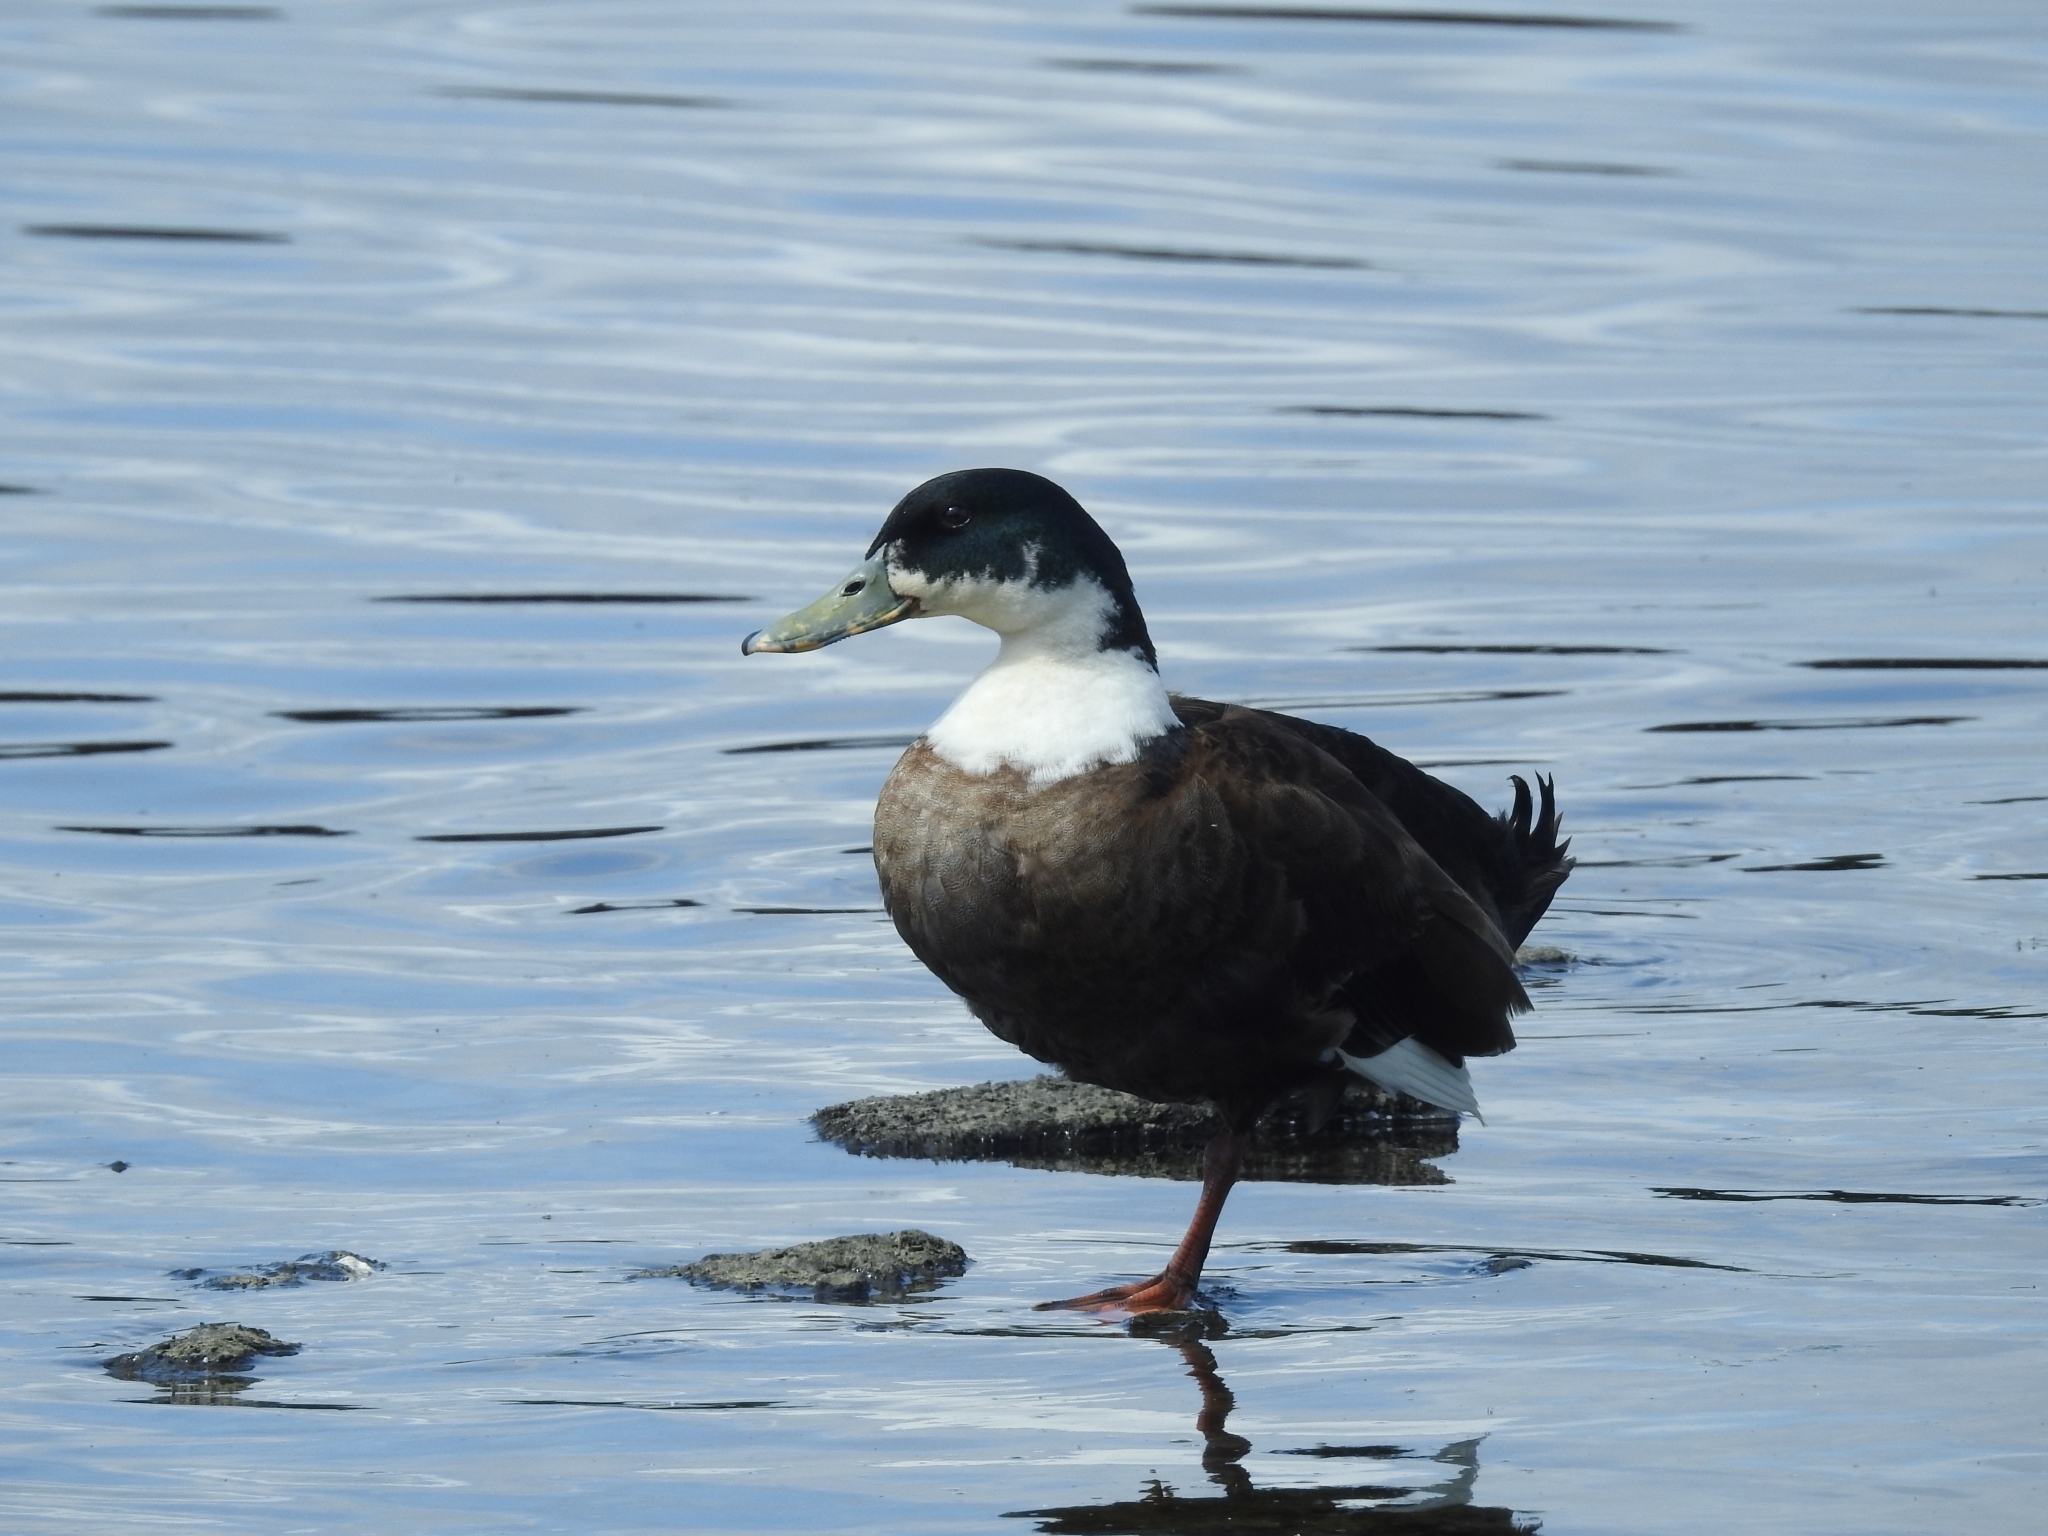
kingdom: Animalia
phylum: Chordata
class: Aves
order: Anseriformes
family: Anatidae
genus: Anas
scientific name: Anas platyrhynchos
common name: Mallard
